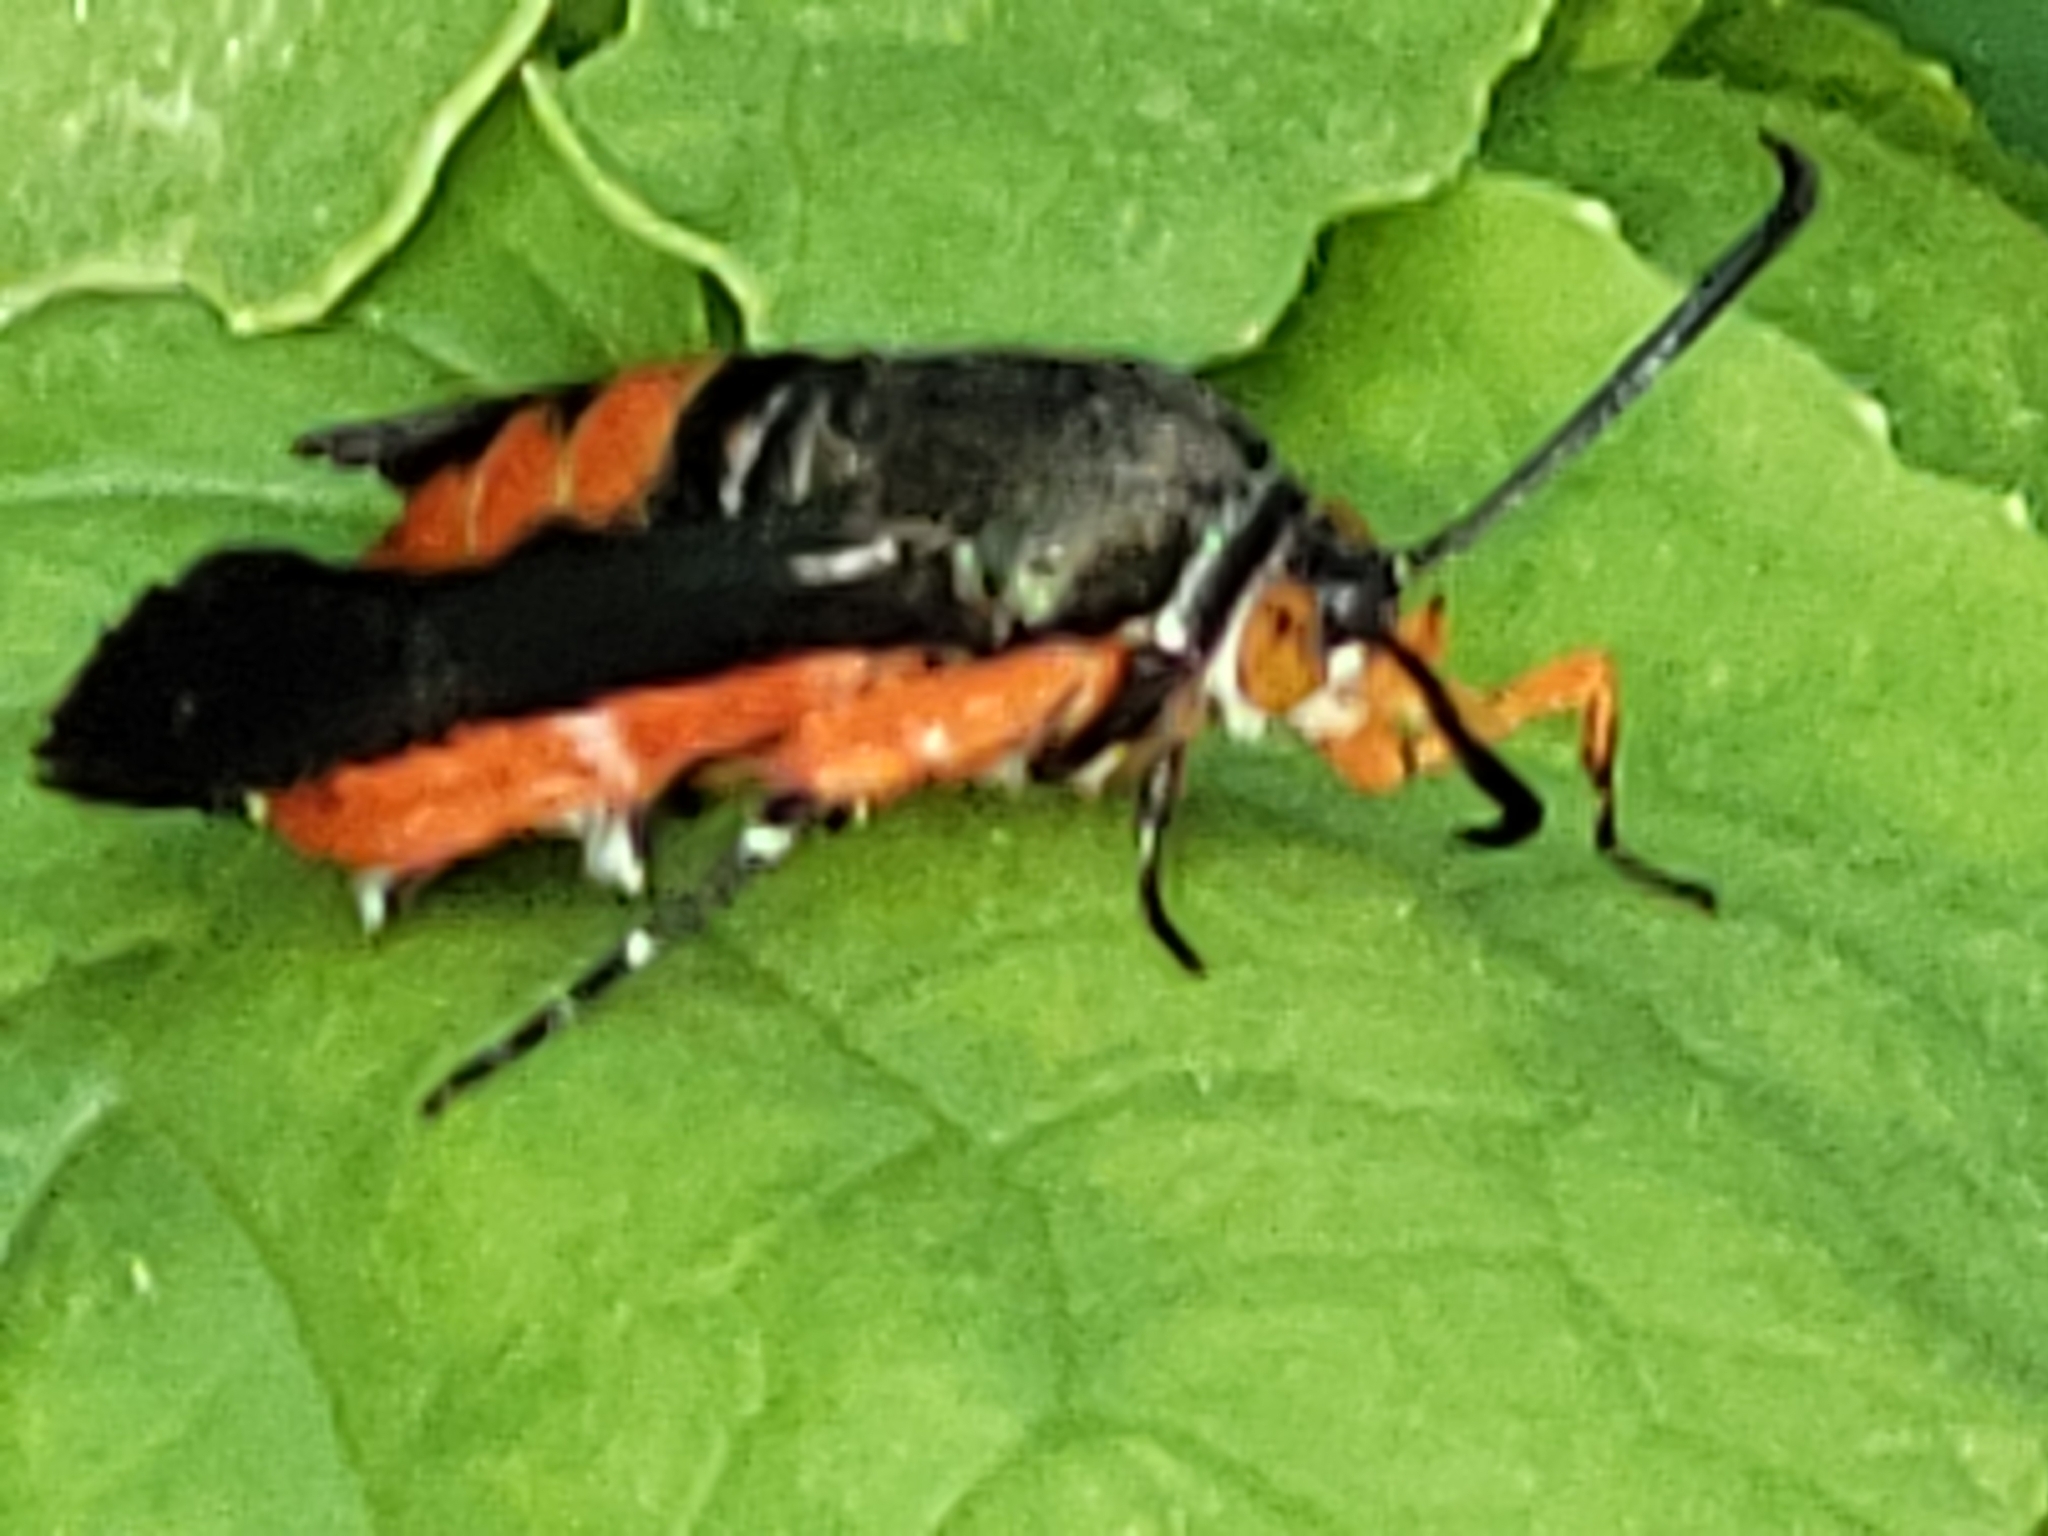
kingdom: Animalia
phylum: Arthropoda
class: Insecta
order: Lepidoptera
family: Sesiidae
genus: Eichlinia
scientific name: Eichlinia cucurbitae
